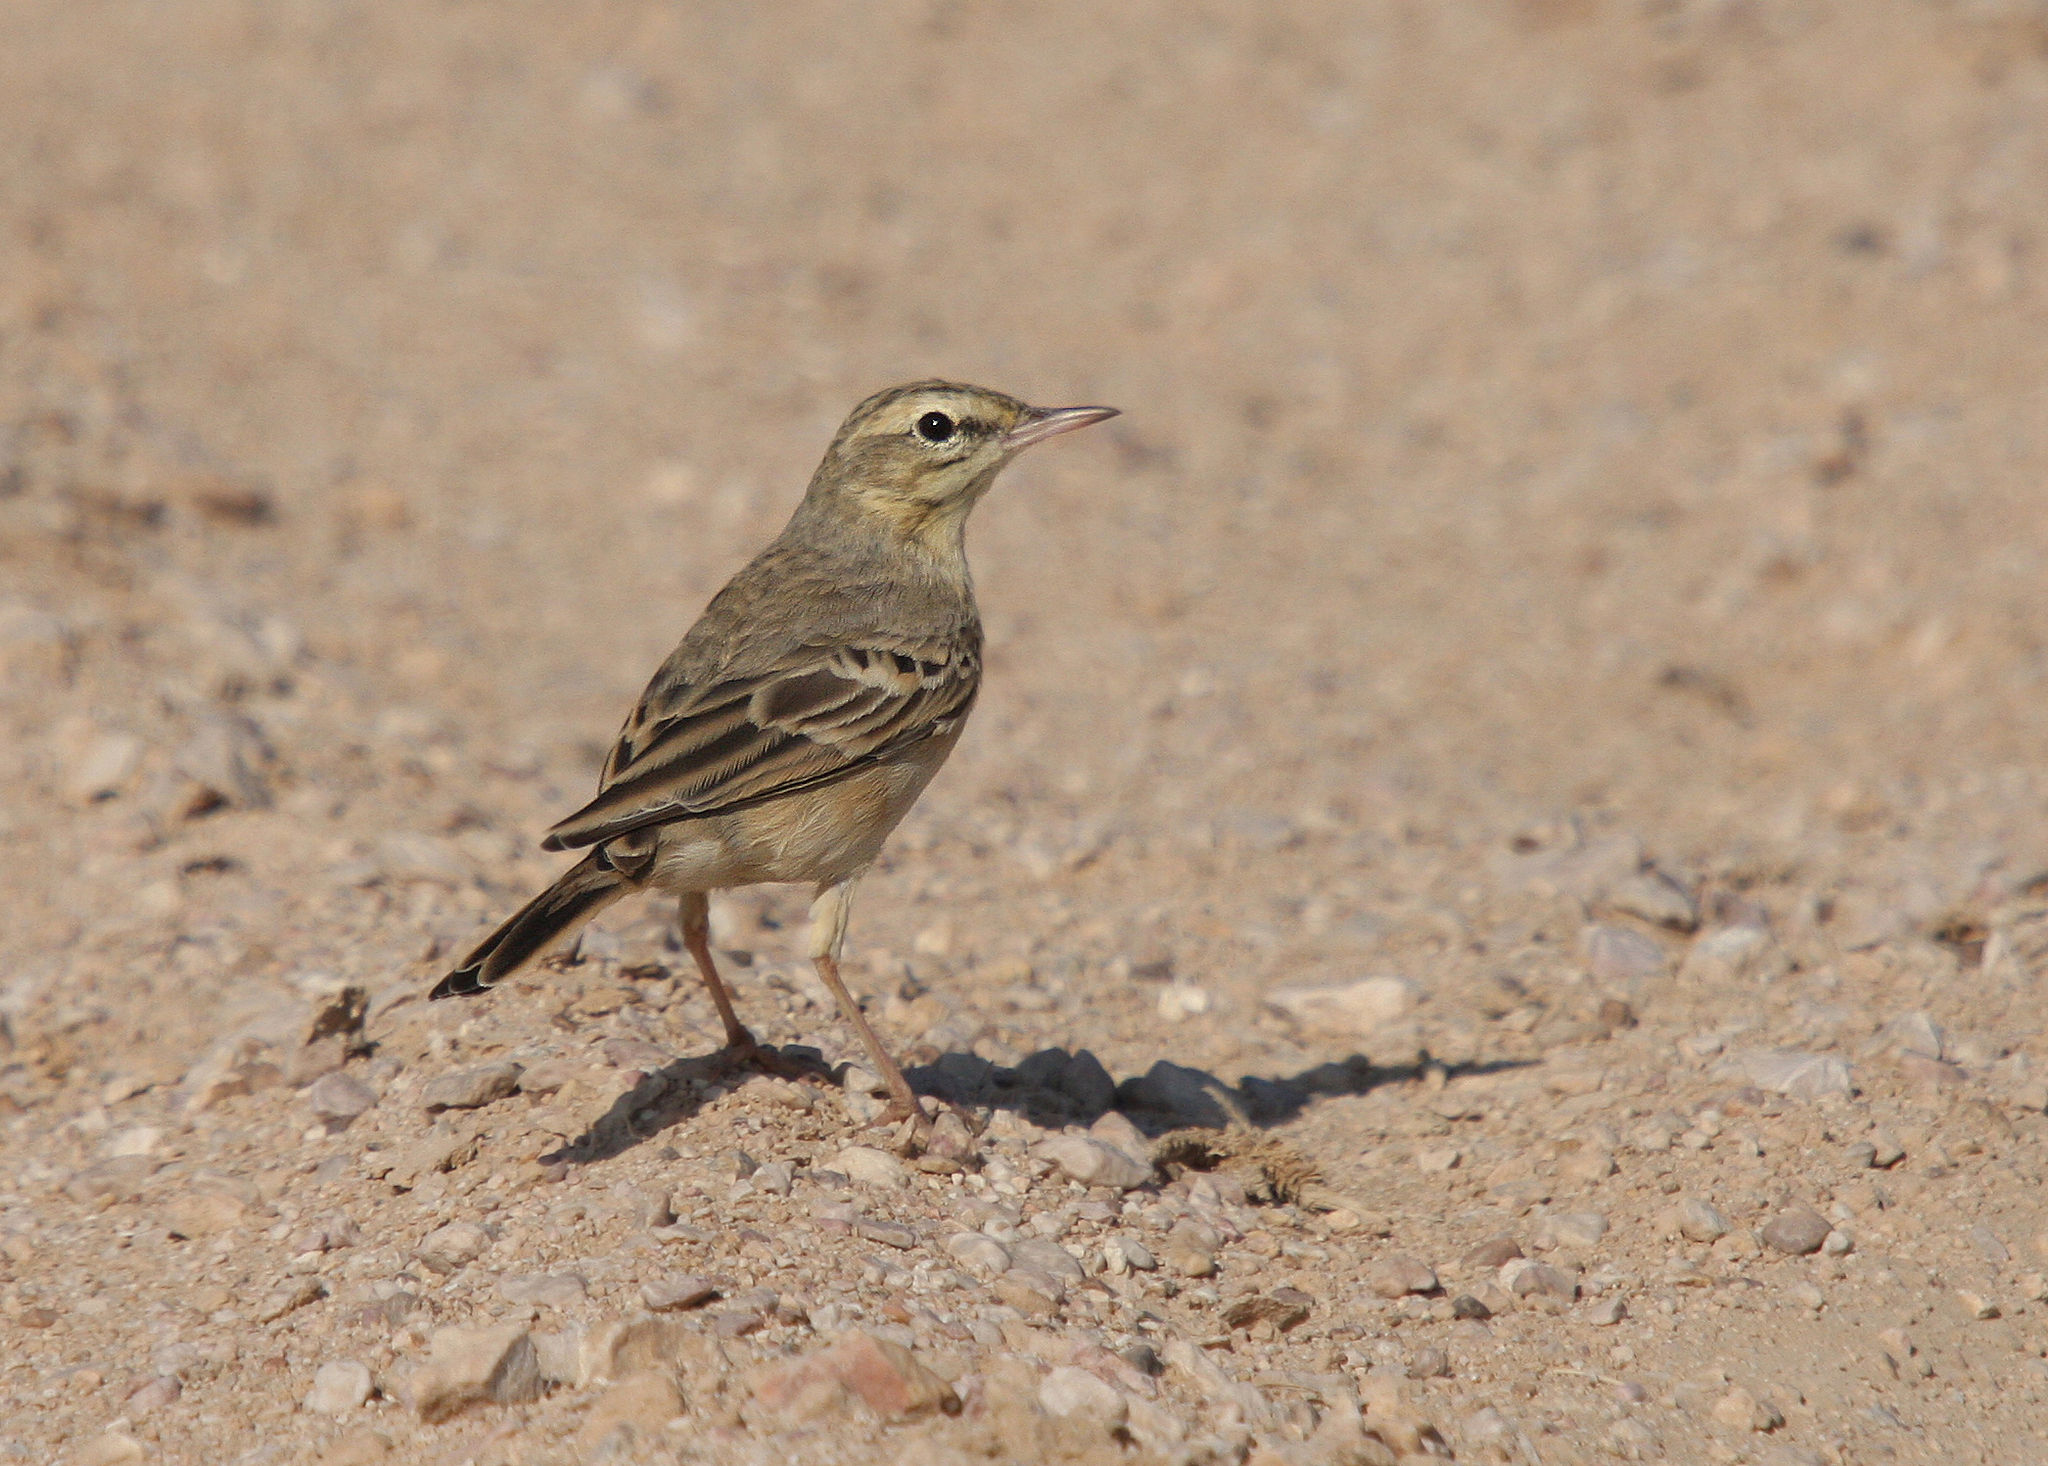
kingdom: Animalia
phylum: Chordata
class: Aves
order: Passeriformes
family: Motacillidae
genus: Anthus
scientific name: Anthus campestris
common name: Tawny pipit
